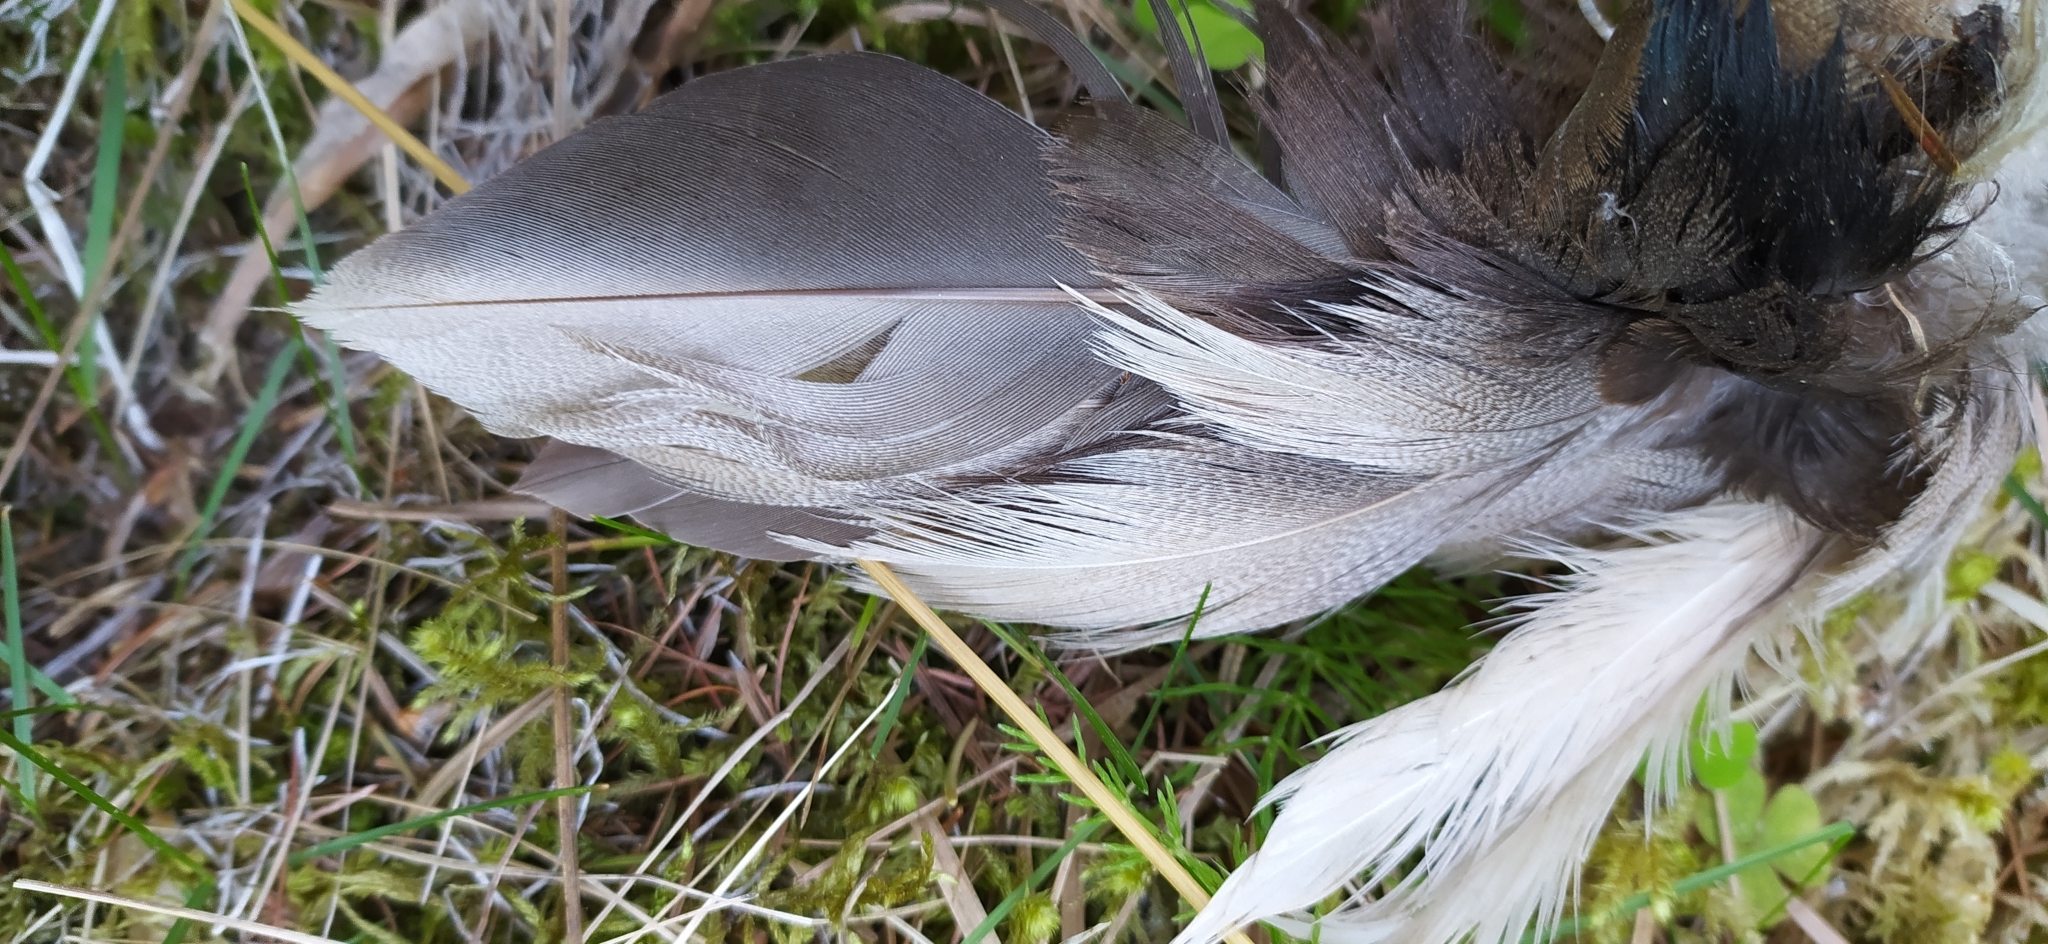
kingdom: Animalia
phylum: Chordata
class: Aves
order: Anseriformes
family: Anatidae
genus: Anas
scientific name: Anas platyrhynchos
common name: Mallard
